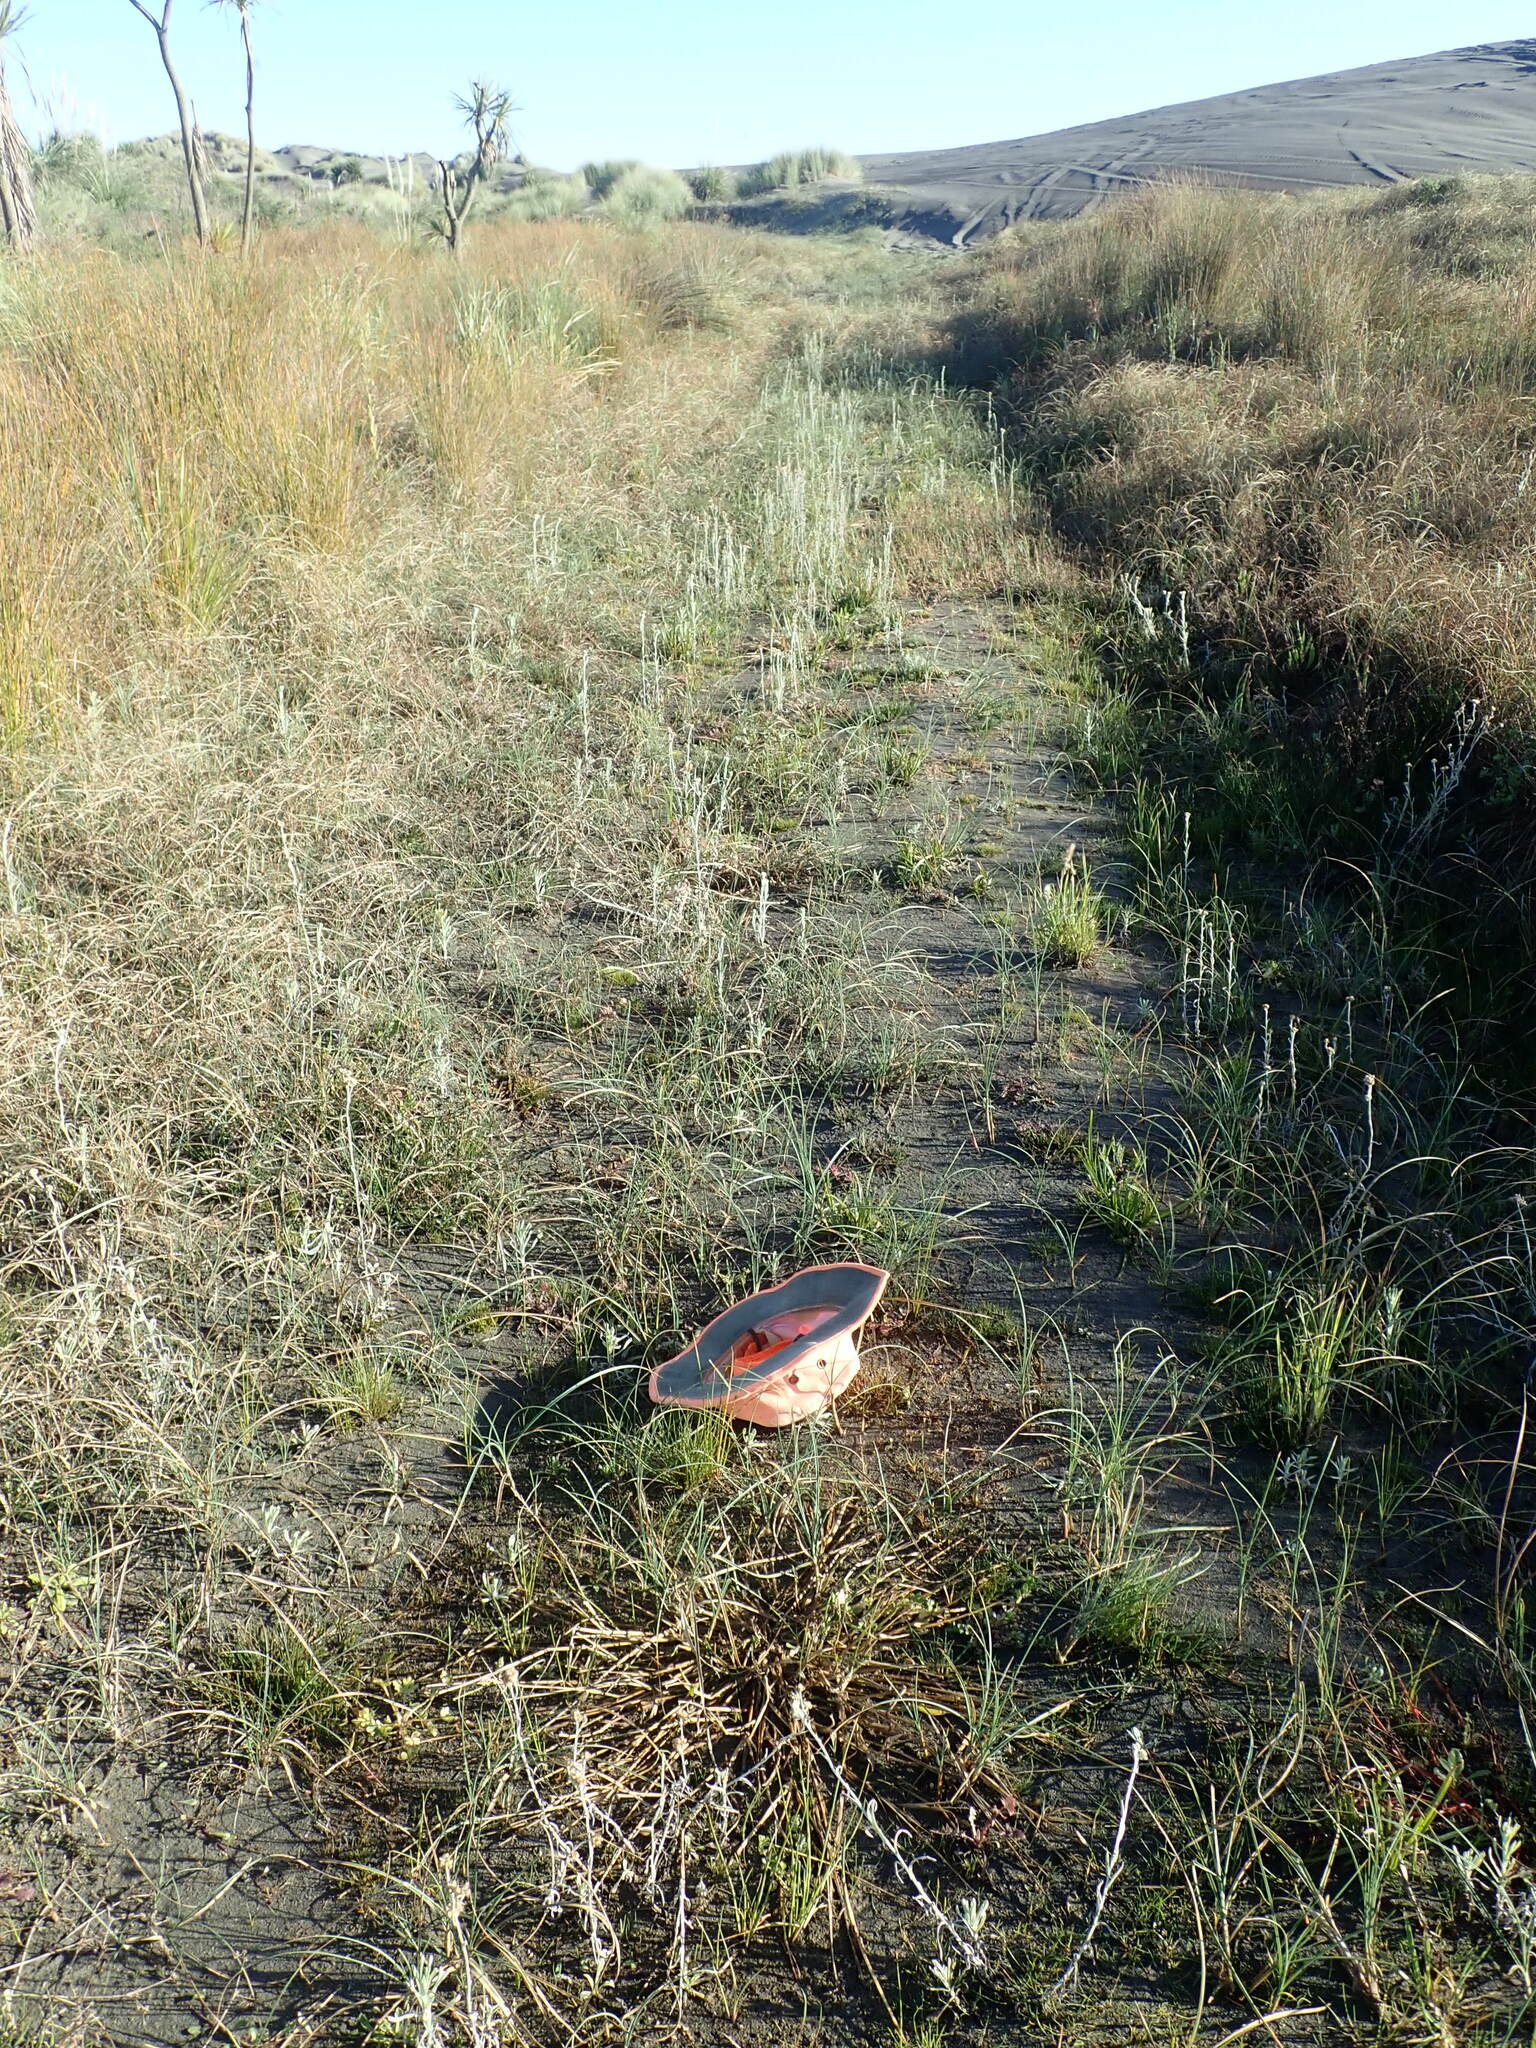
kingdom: Plantae
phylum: Tracheophyta
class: Magnoliopsida
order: Lamiales
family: Scrophulariaceae
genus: Limosella
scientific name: Limosella australis
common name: Welsh mudwort
